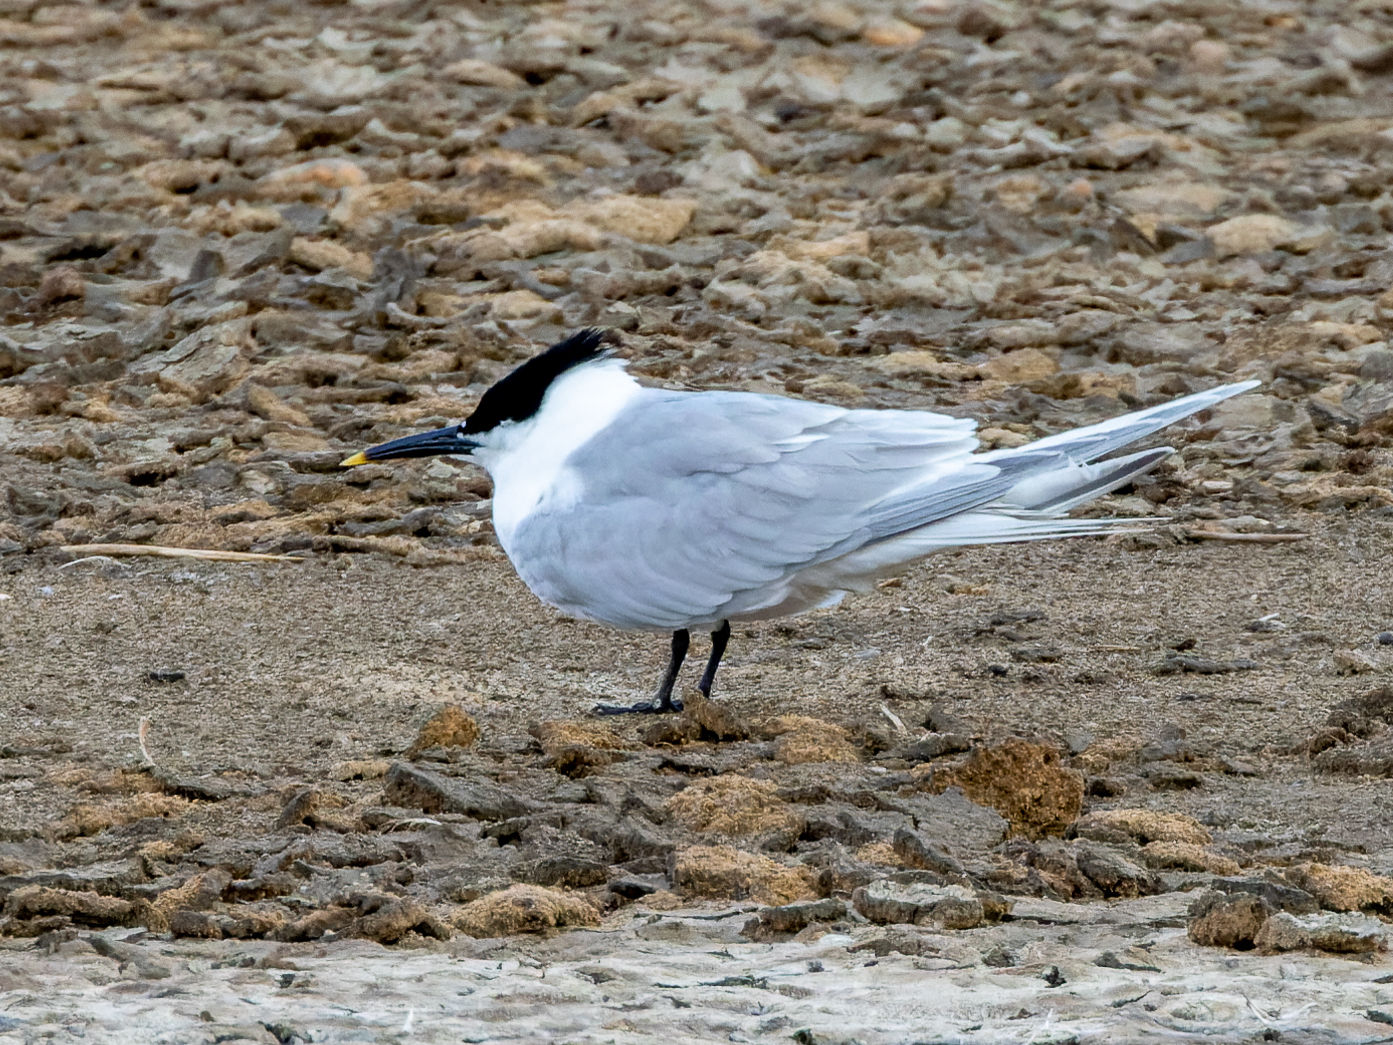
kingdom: Animalia
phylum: Chordata
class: Aves
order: Charadriiformes
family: Laridae
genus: Thalasseus
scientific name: Thalasseus sandvicensis
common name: Sandwich tern
